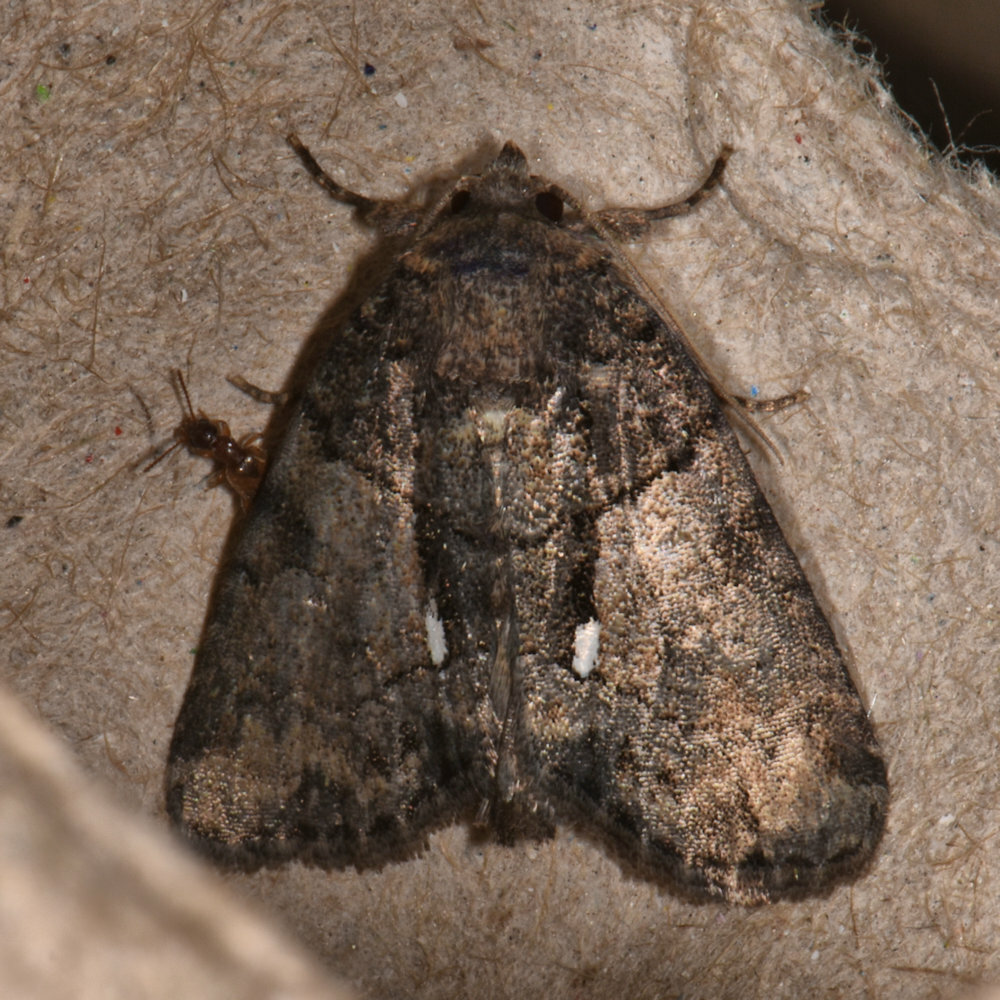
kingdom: Animalia
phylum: Arthropoda
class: Insecta
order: Lepidoptera
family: Noctuidae
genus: Chytonix
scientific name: Chytonix palliatricula
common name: Cloaked marvel
